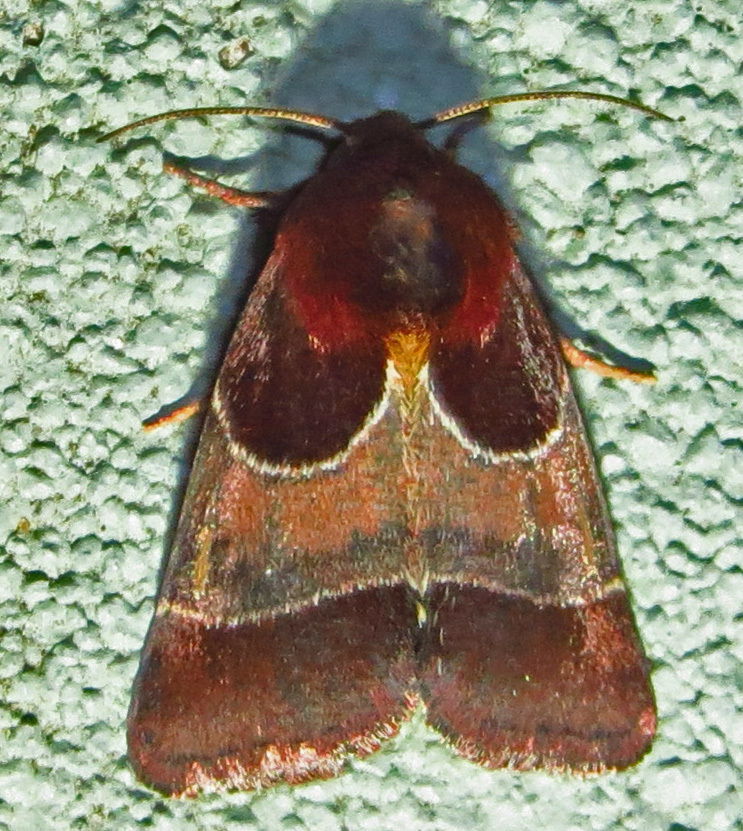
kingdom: Animalia
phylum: Arthropoda
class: Insecta
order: Lepidoptera
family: Noctuidae
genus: Schinia
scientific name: Schinia arcigera
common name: Arcigera flower moth
